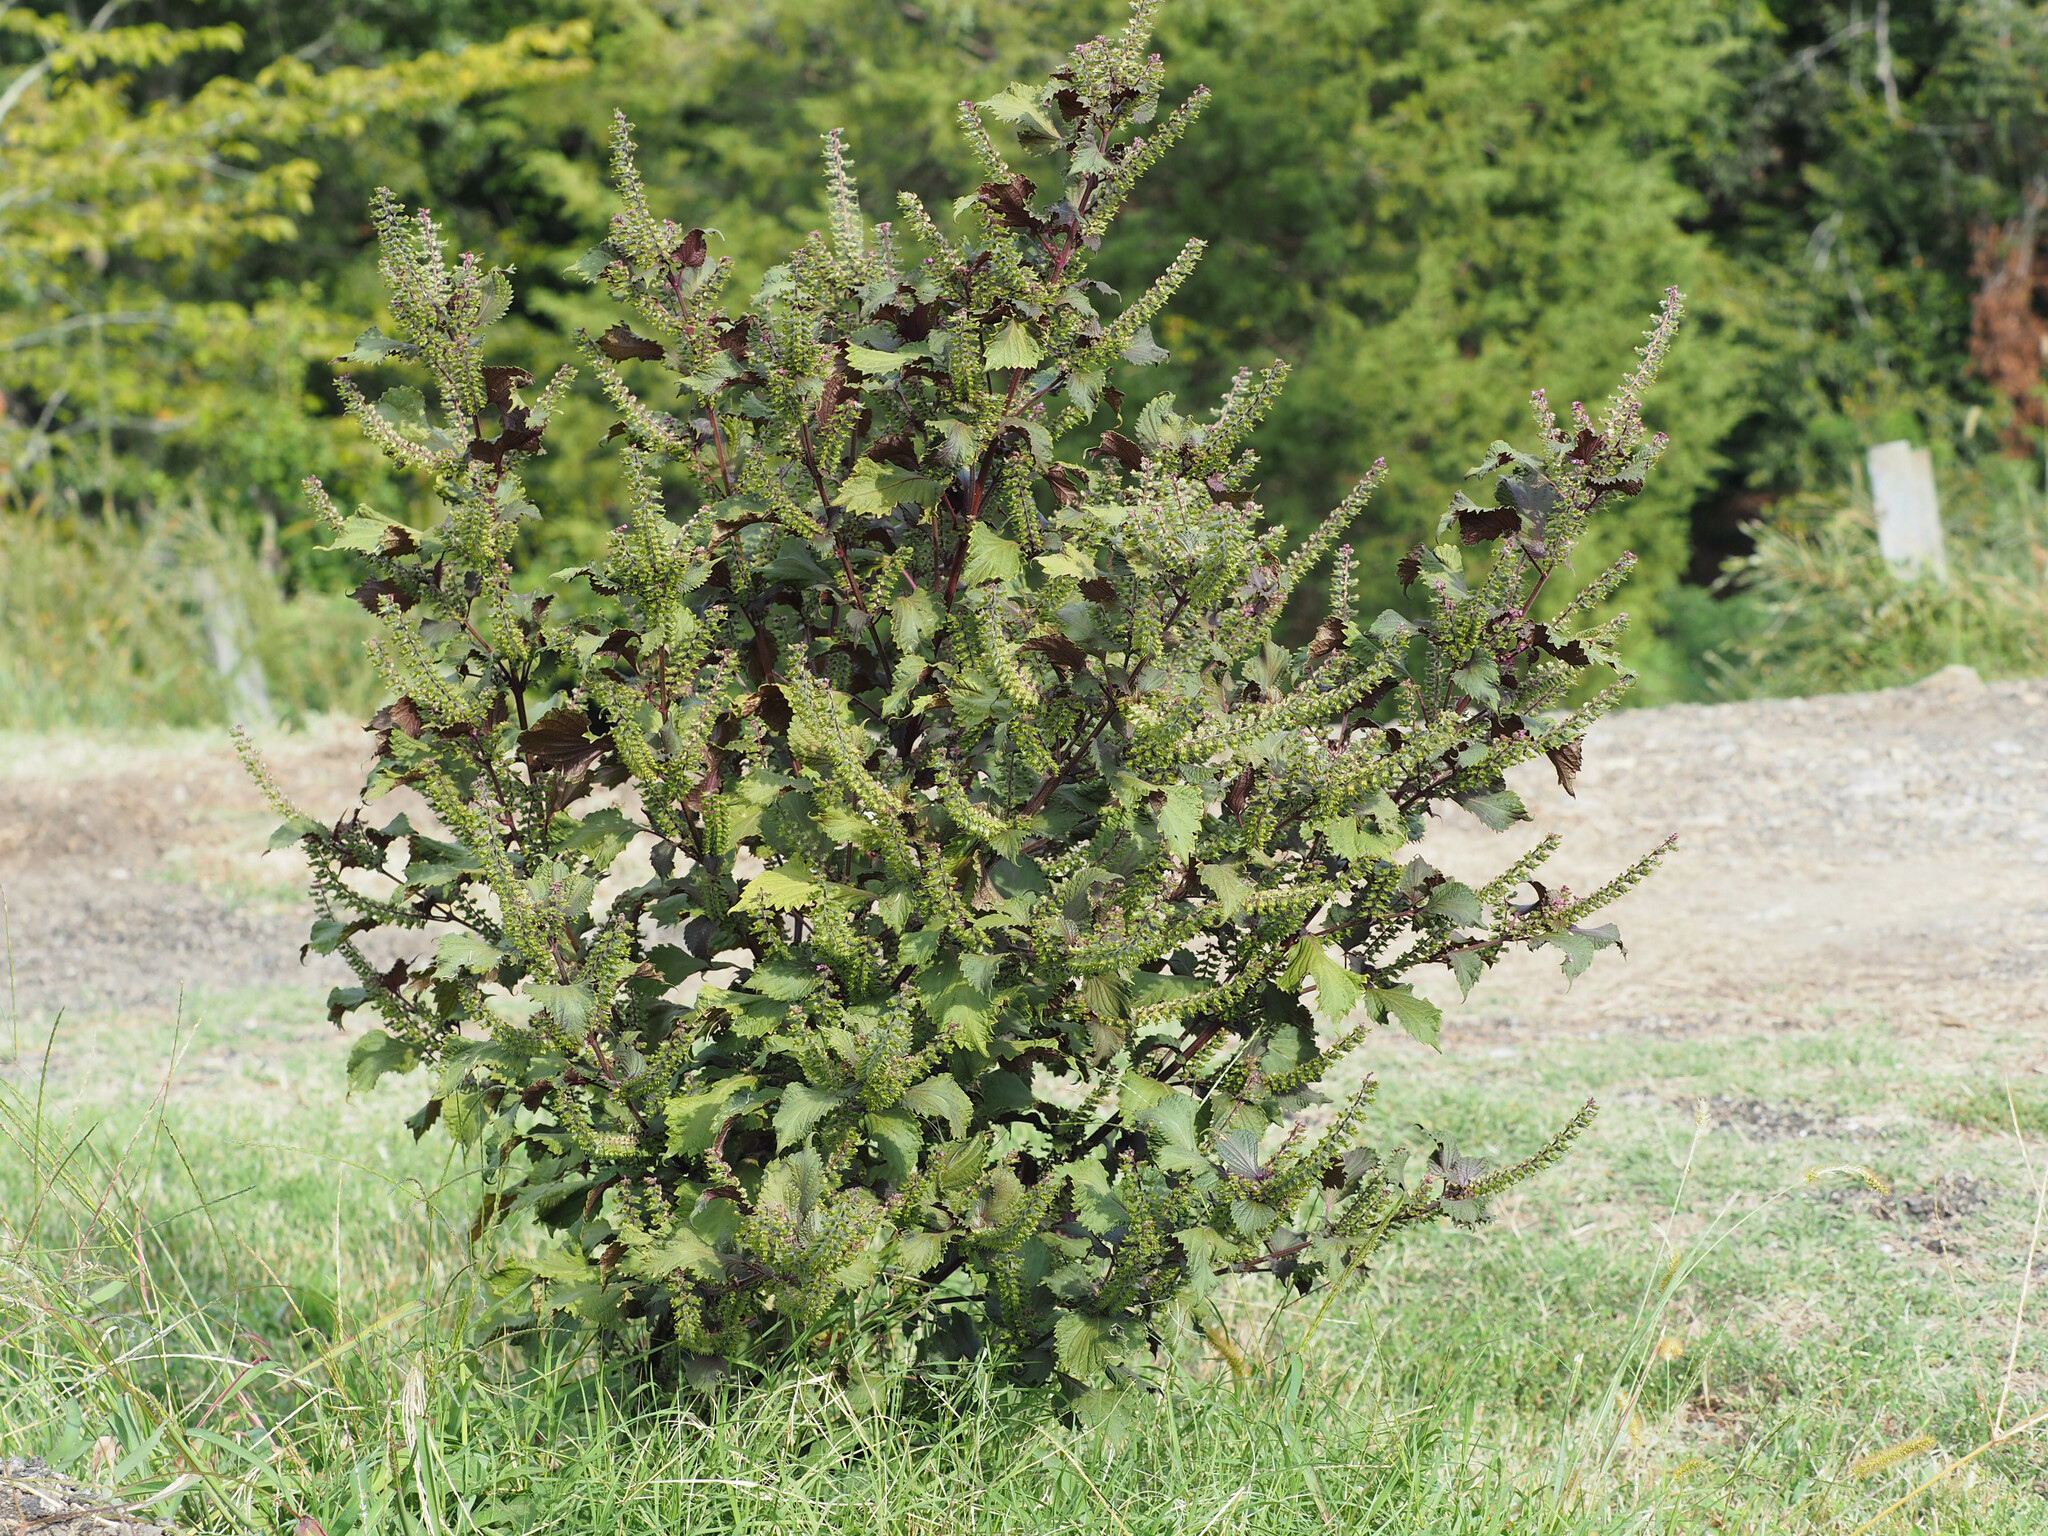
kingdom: Plantae
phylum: Tracheophyta
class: Magnoliopsida
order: Lamiales
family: Lamiaceae
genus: Perilla
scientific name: Perilla frutescens
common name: Perilla
